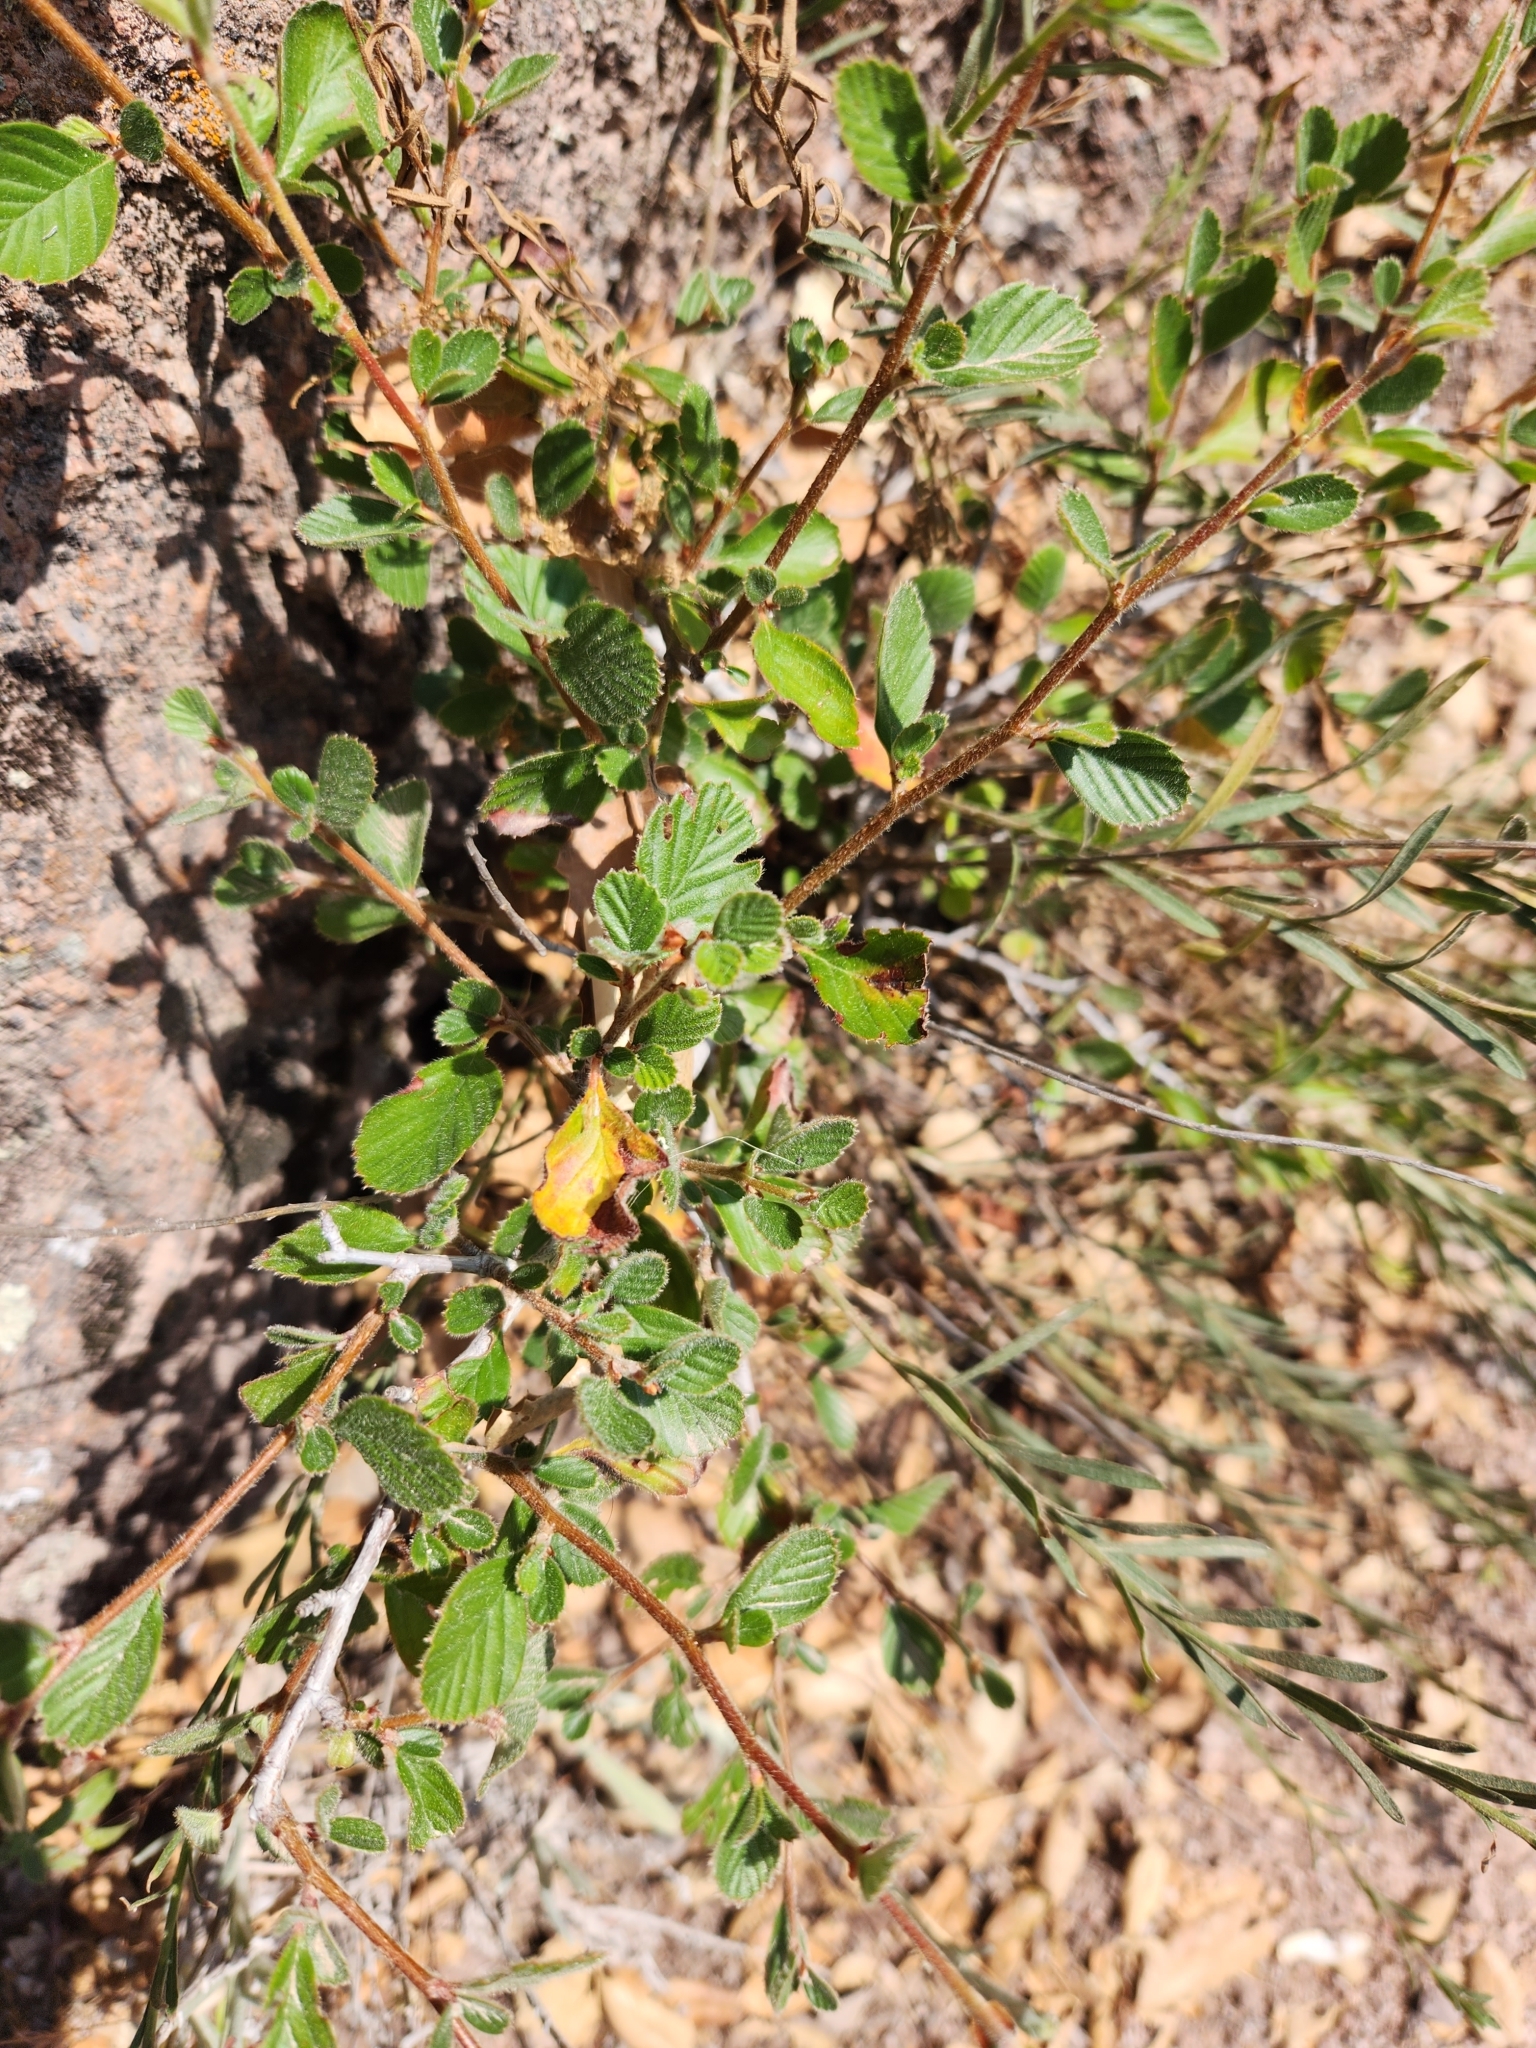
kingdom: Plantae
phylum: Tracheophyta
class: Magnoliopsida
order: Rosales
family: Rosaceae
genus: Cercocarpus
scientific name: Cercocarpus betuloides
